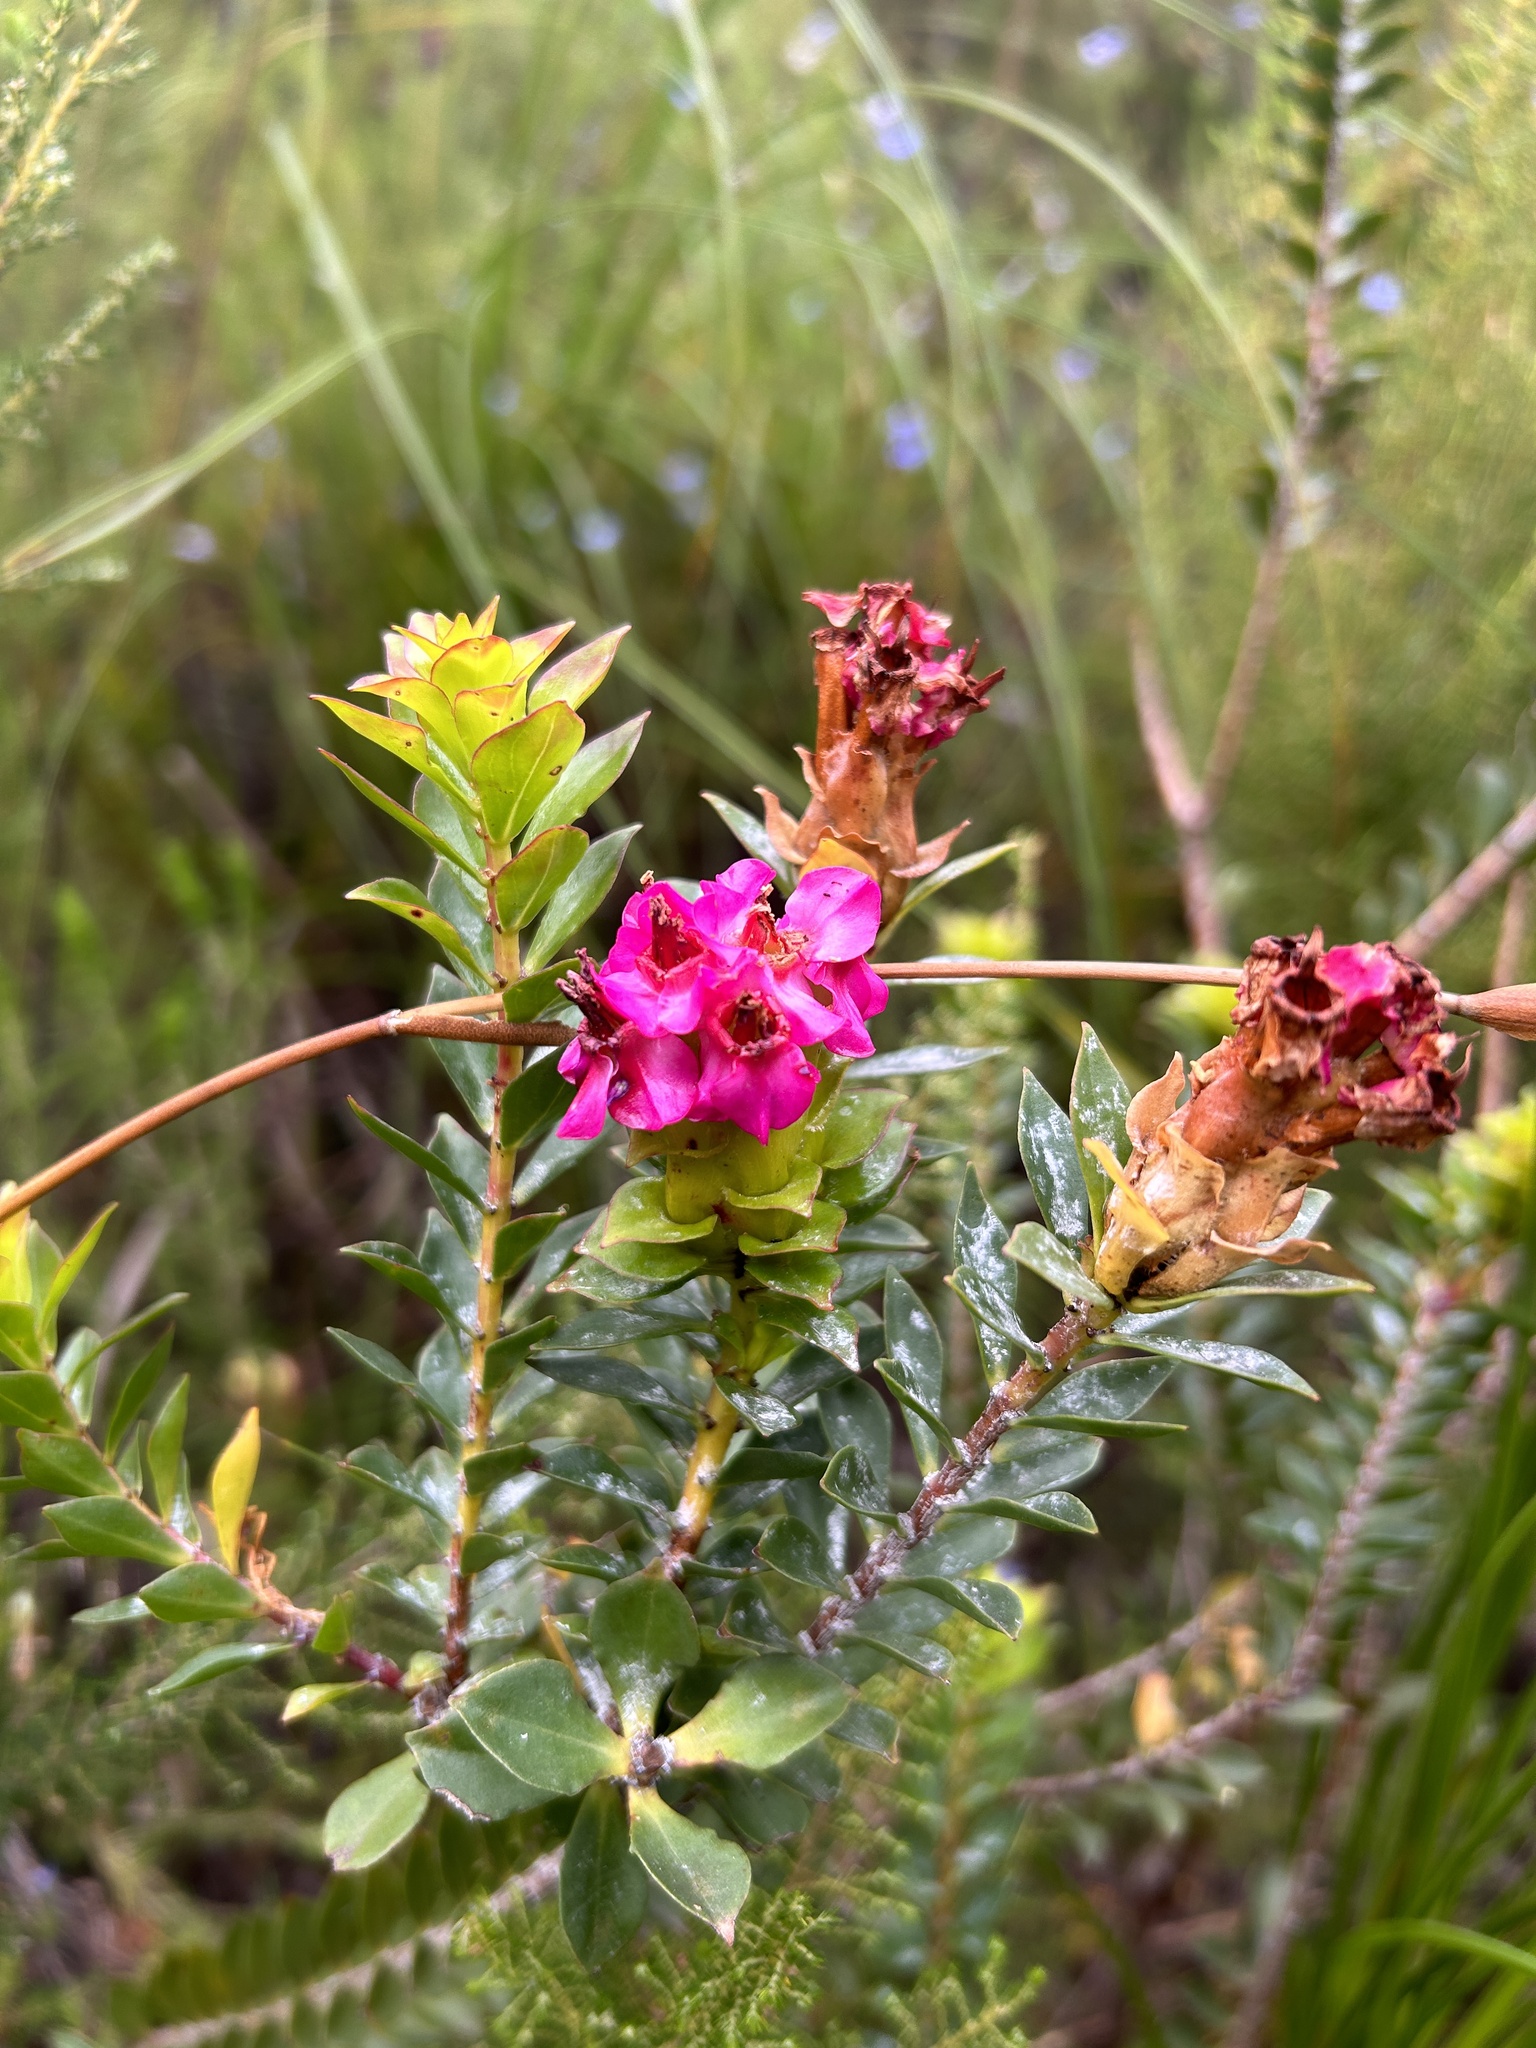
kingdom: Plantae
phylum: Tracheophyta
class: Magnoliopsida
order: Myrtales
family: Penaeaceae
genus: Saltera
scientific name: Saltera sarcocolla
